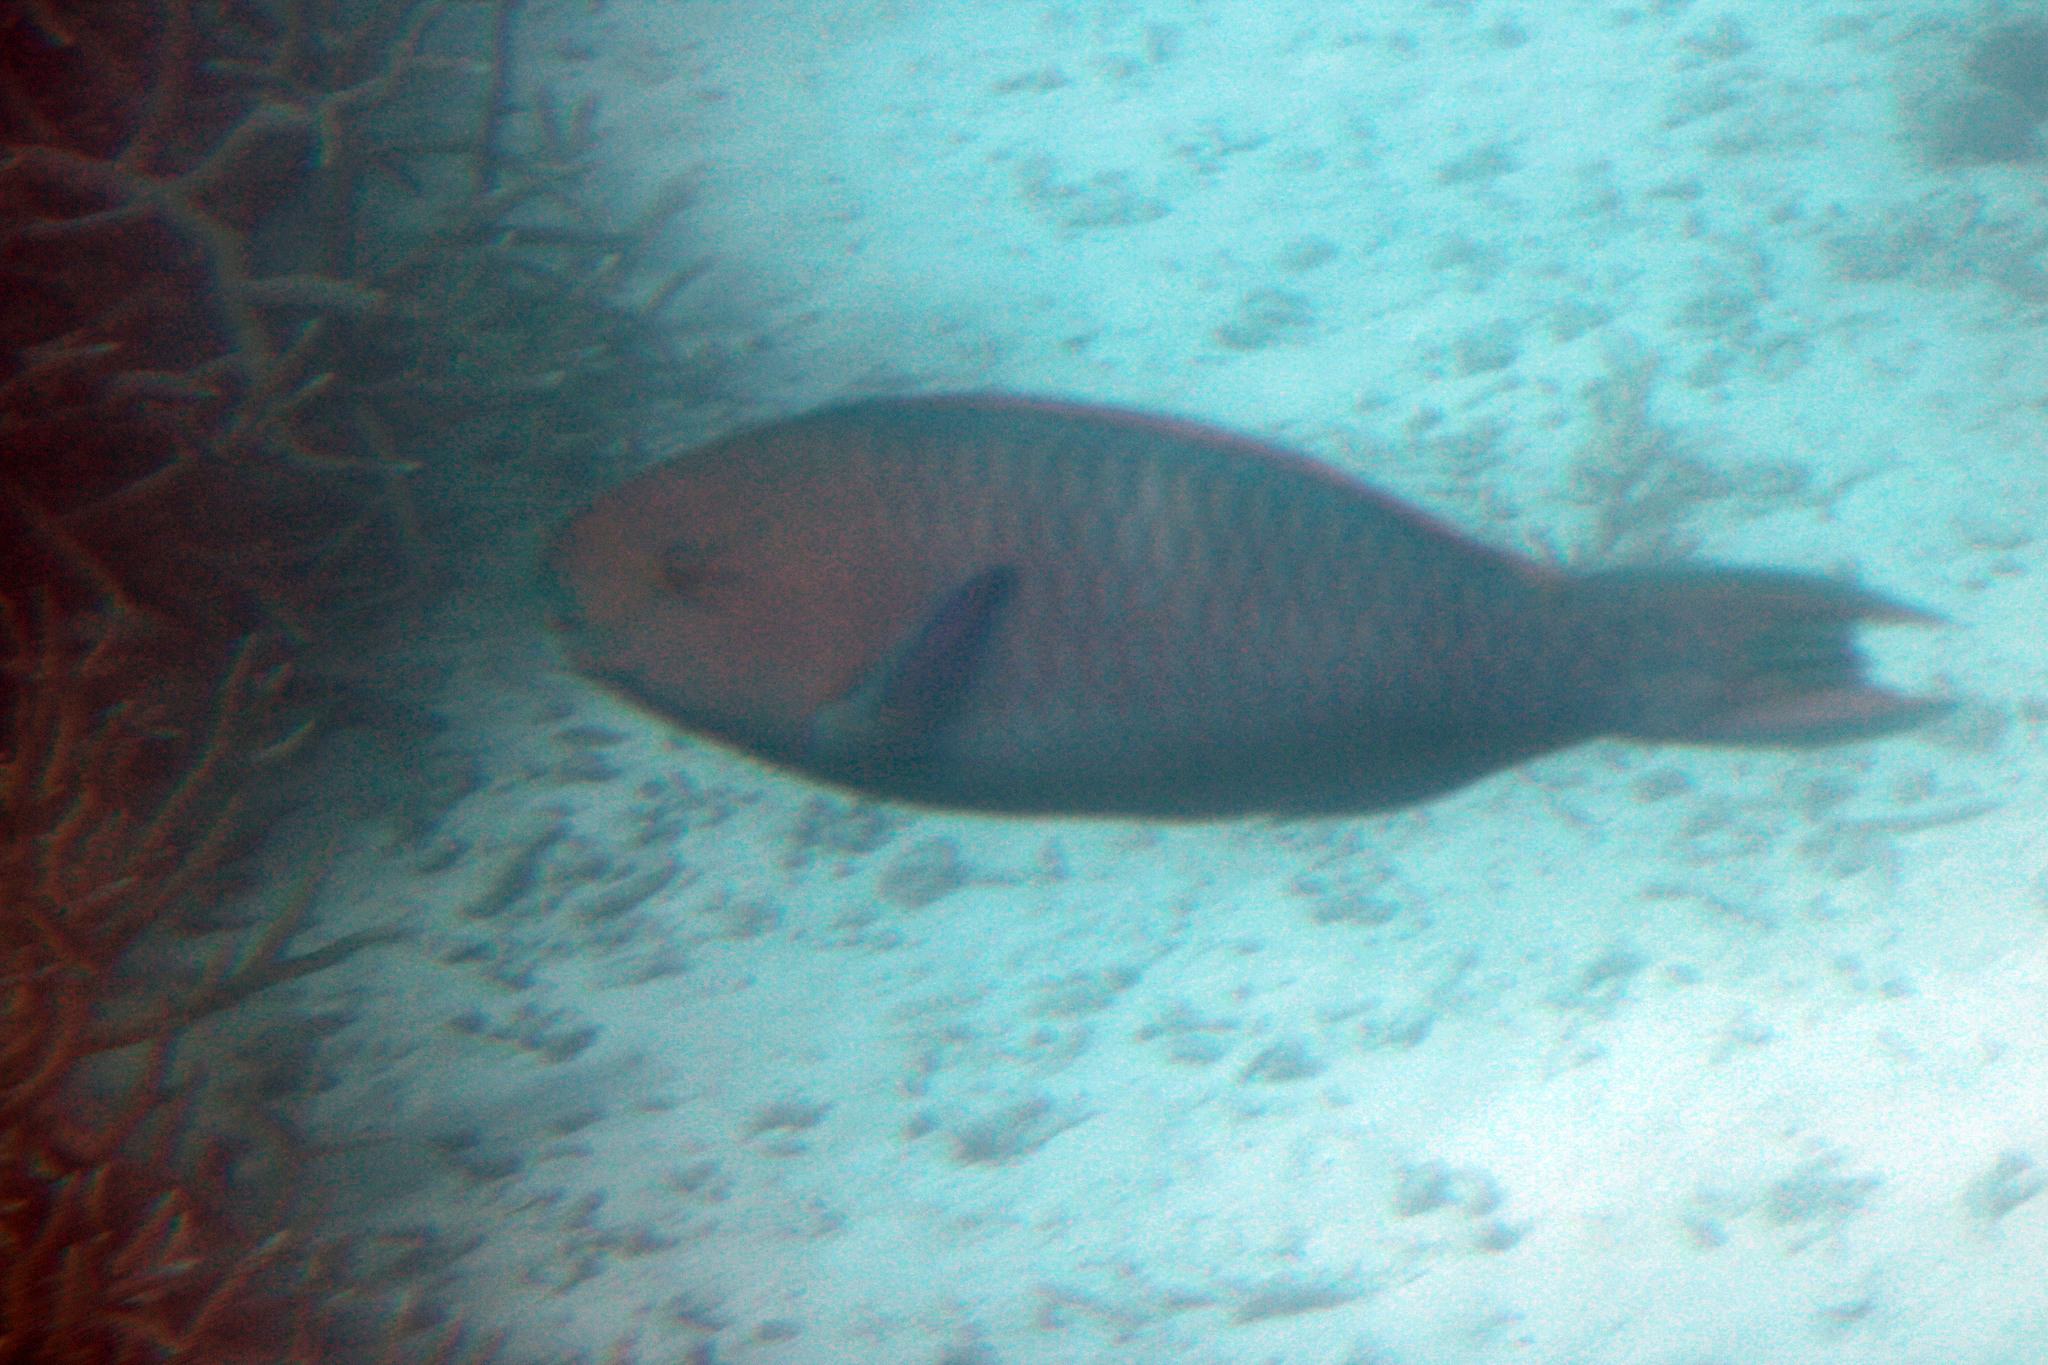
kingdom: Animalia
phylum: Chordata
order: Perciformes
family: Scaridae
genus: Scarus
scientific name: Scarus ghobban
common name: Blue-barred parrotfish
